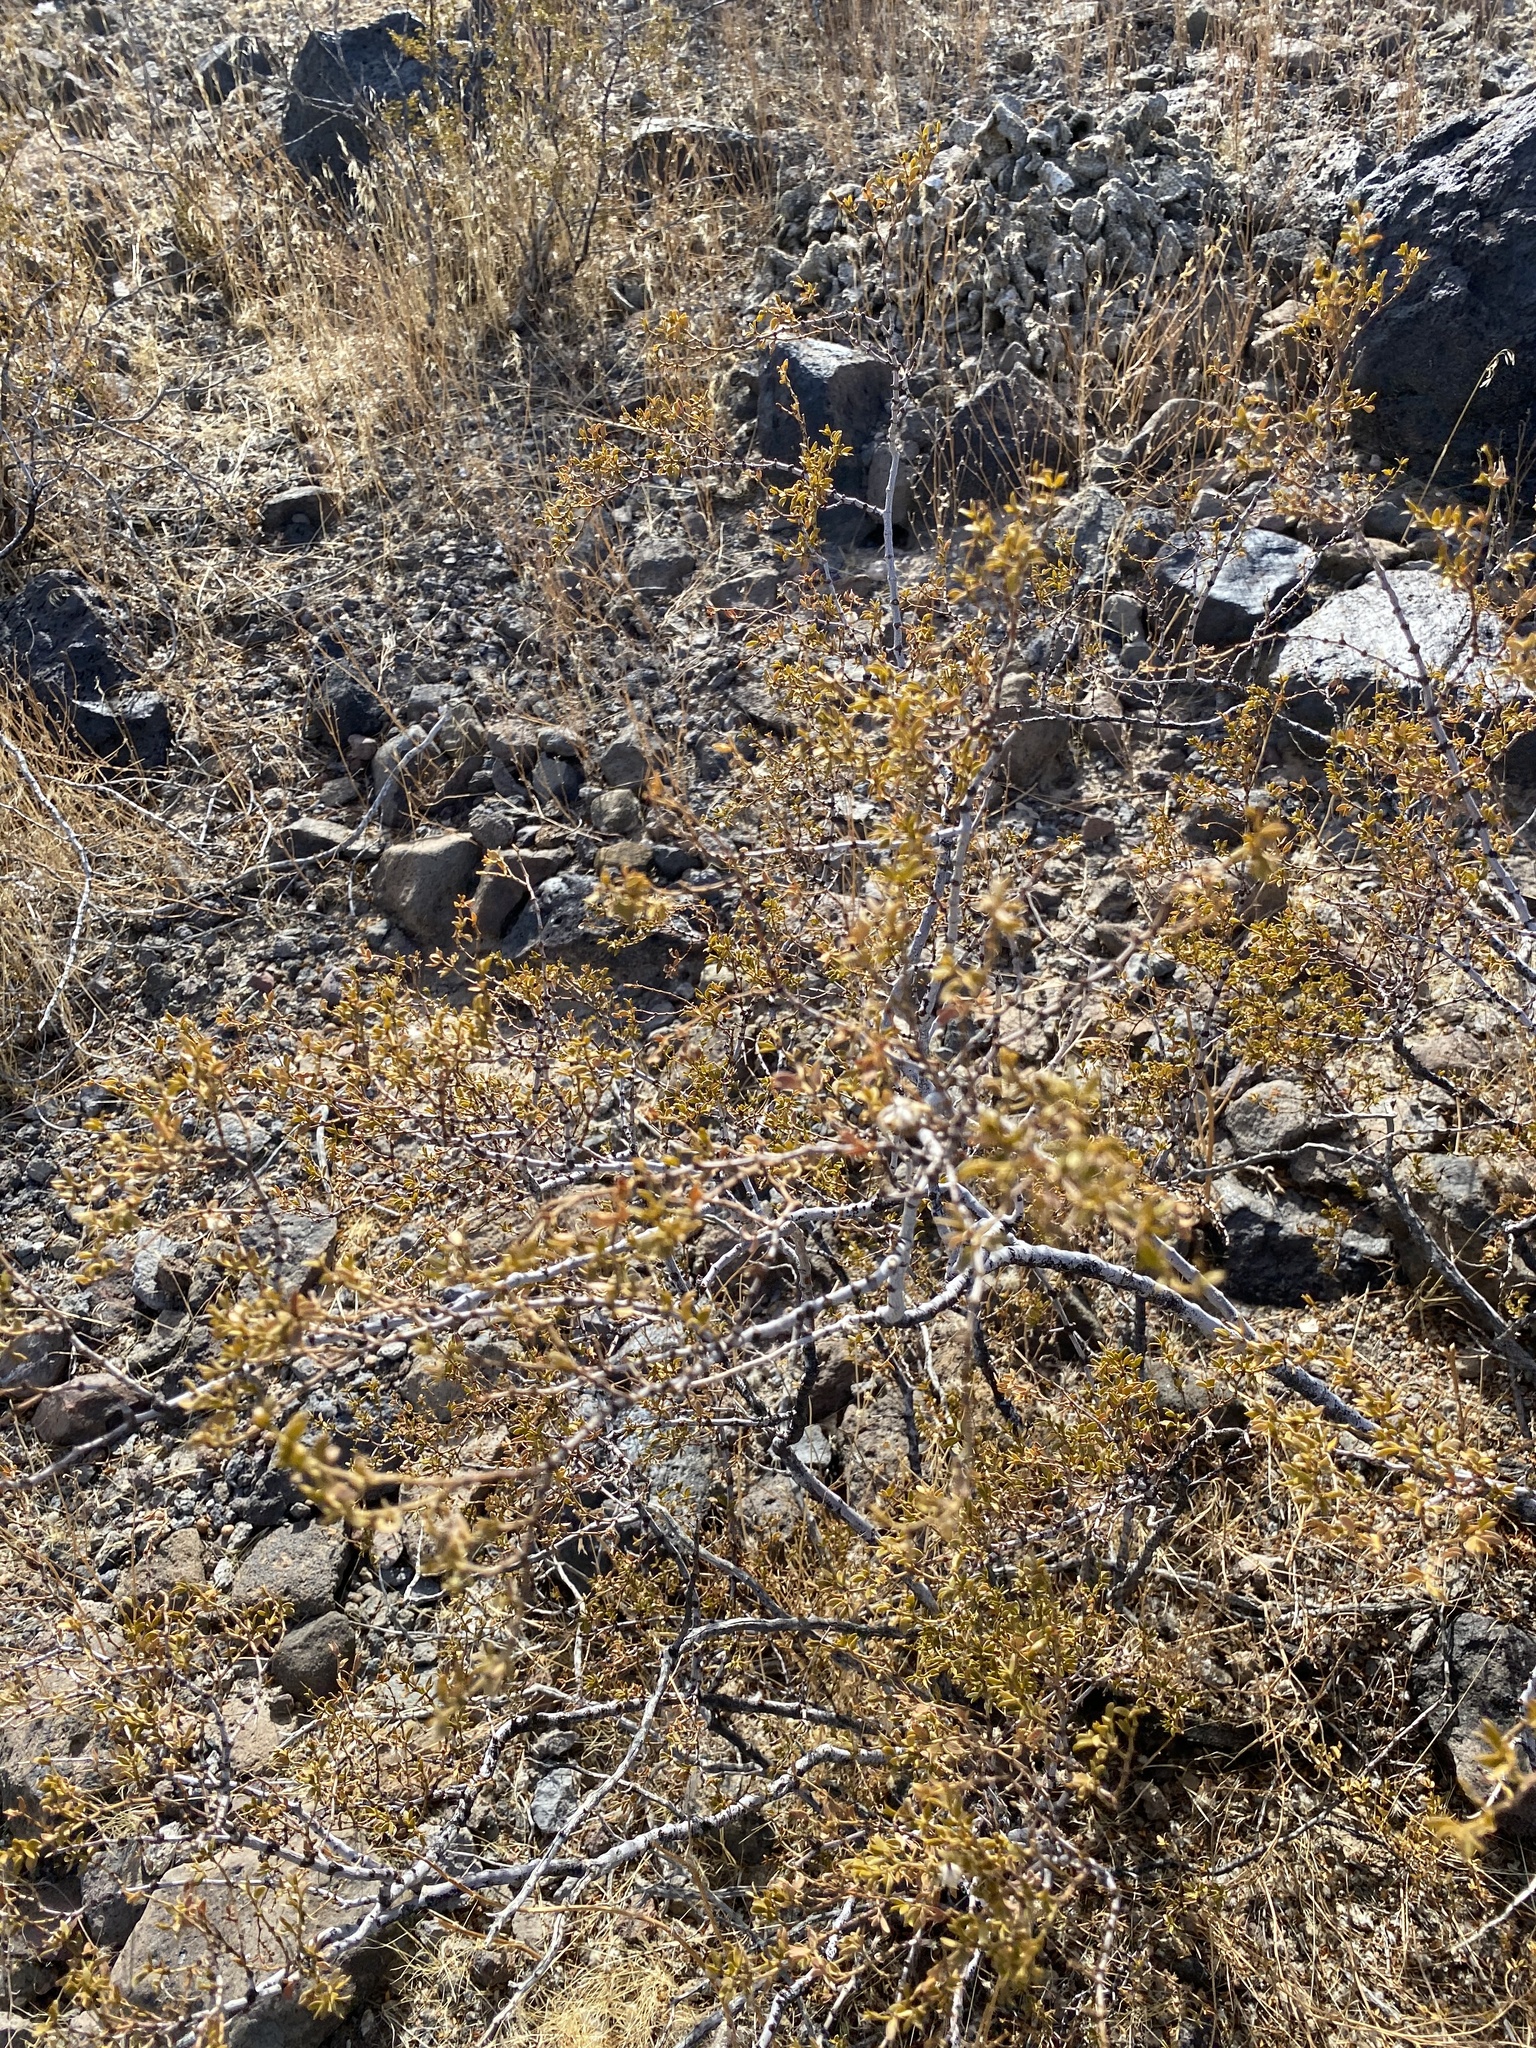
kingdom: Plantae
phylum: Tracheophyta
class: Magnoliopsida
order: Zygophyllales
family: Zygophyllaceae
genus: Larrea
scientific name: Larrea tridentata
